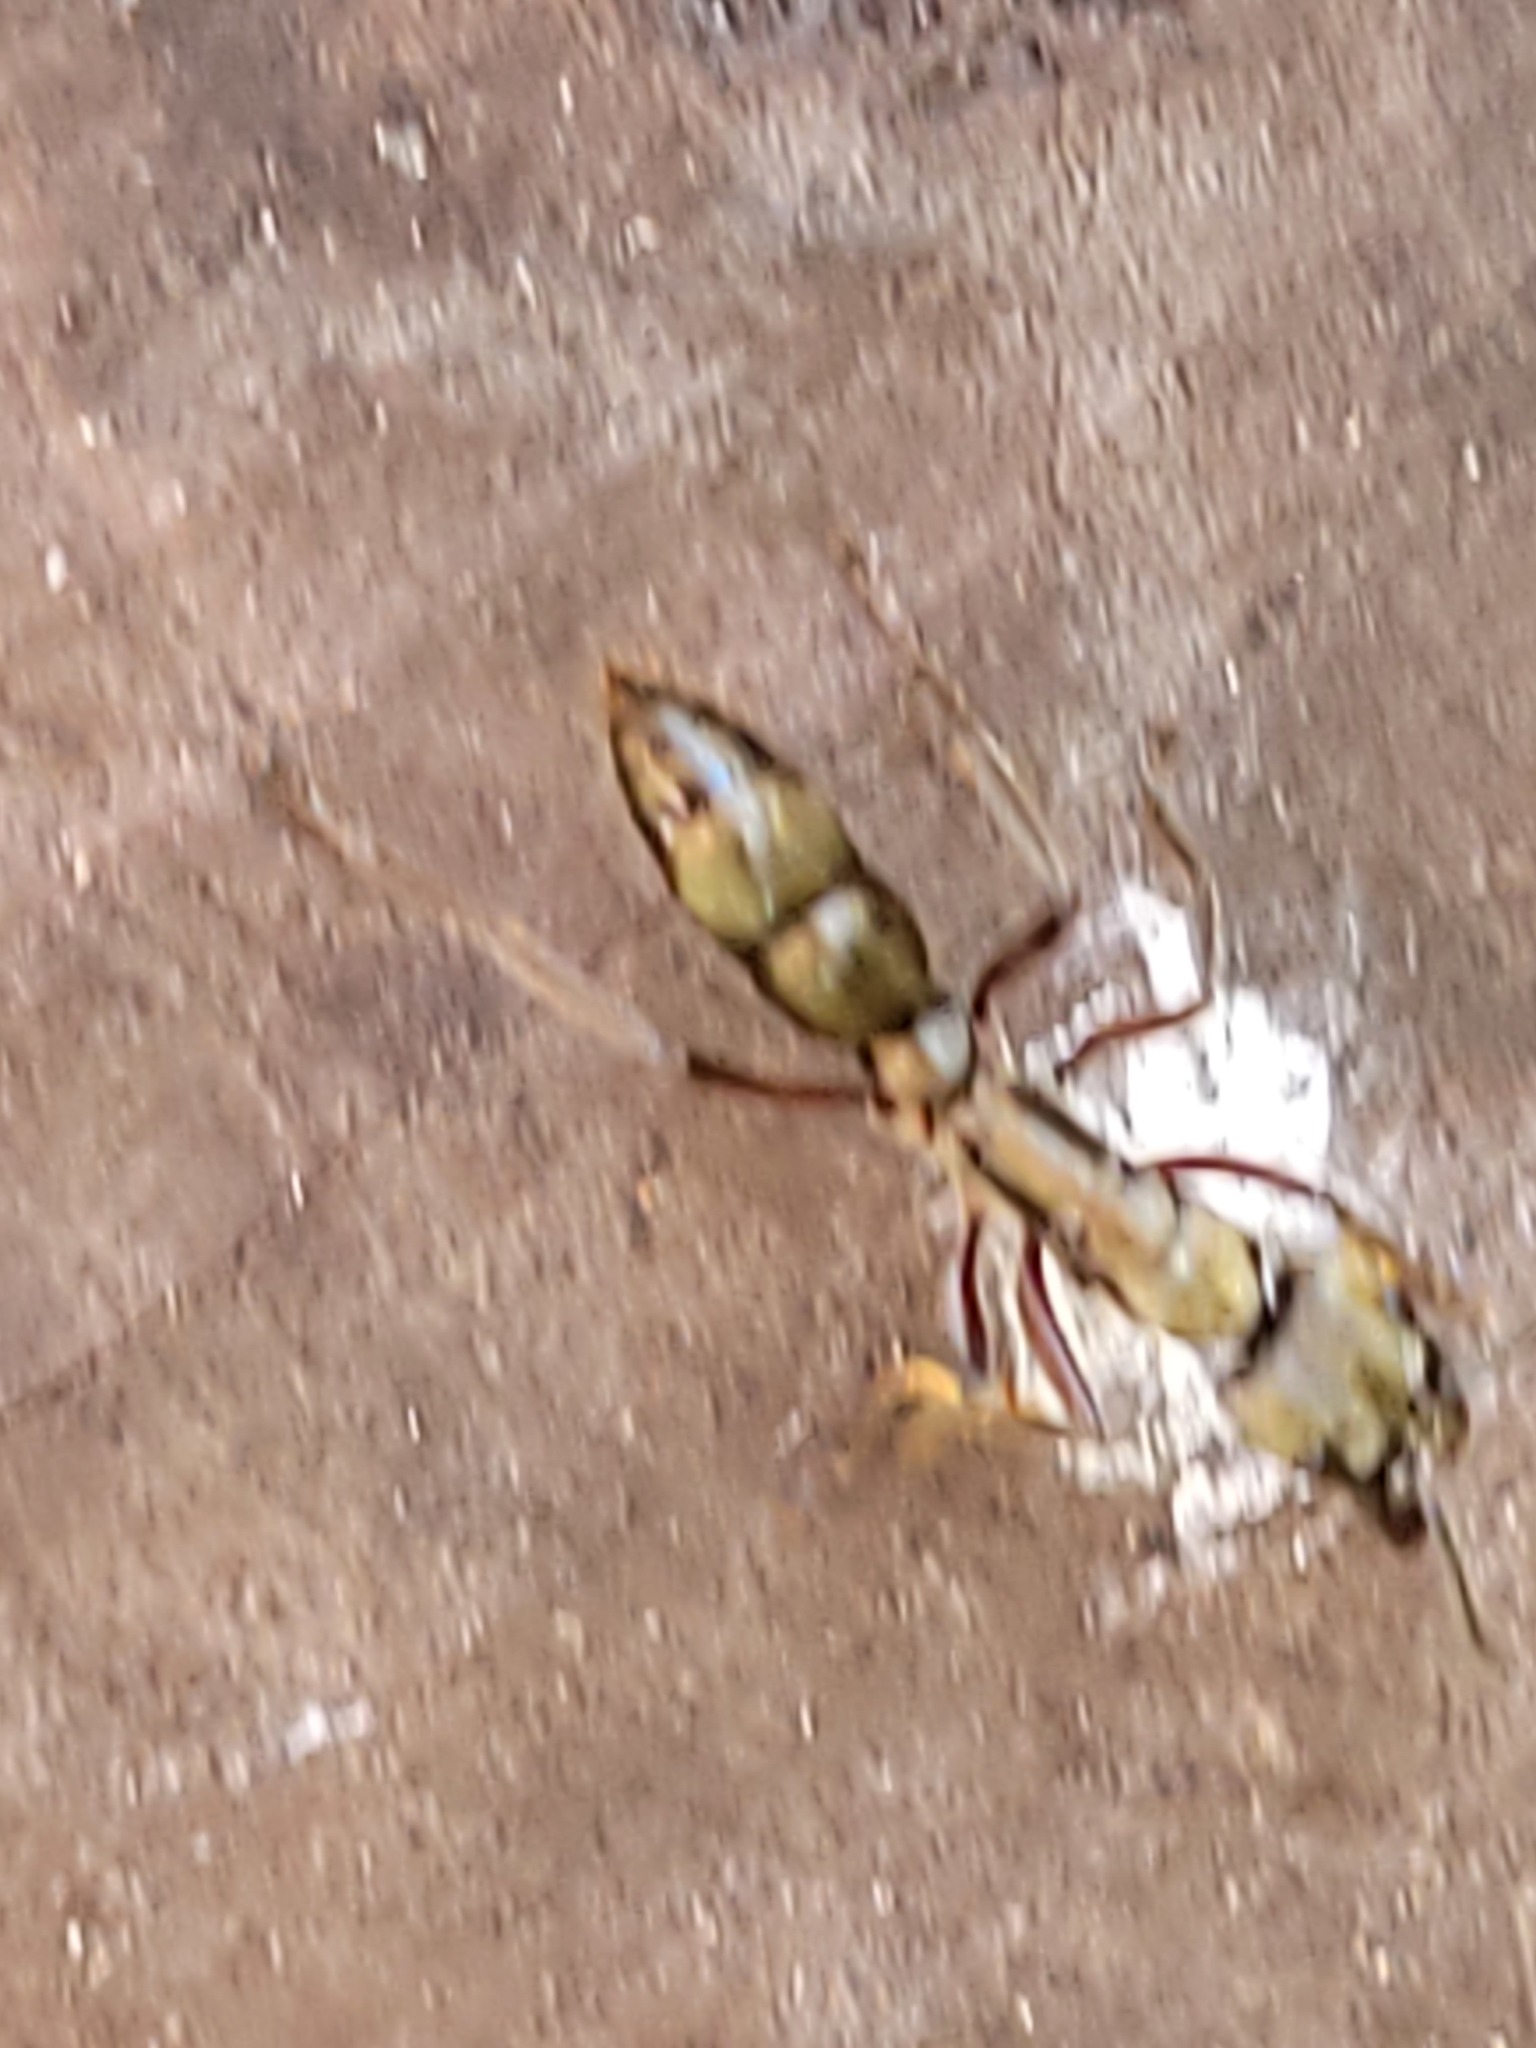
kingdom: Animalia
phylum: Arthropoda
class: Insecta
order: Hymenoptera
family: Formicidae
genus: Pachycondyla
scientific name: Pachycondyla villosa
